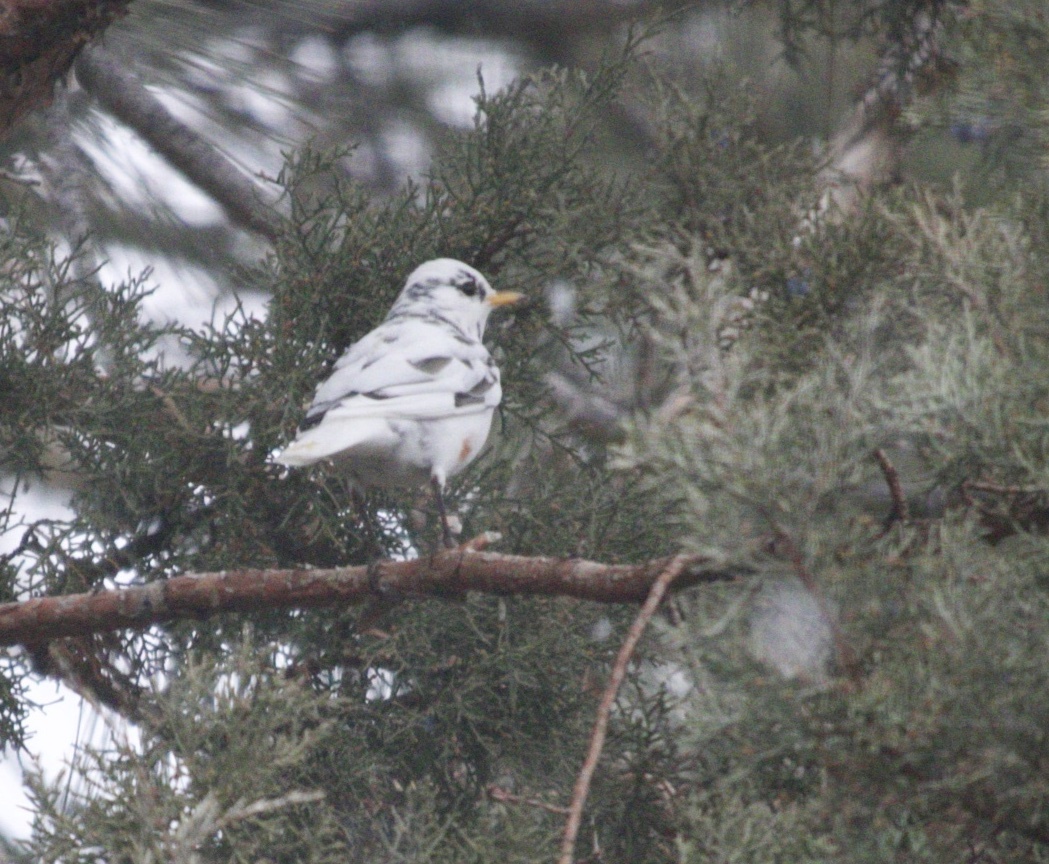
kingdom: Animalia
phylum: Chordata
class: Aves
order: Passeriformes
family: Turdidae
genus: Turdus
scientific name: Turdus migratorius
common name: American robin
